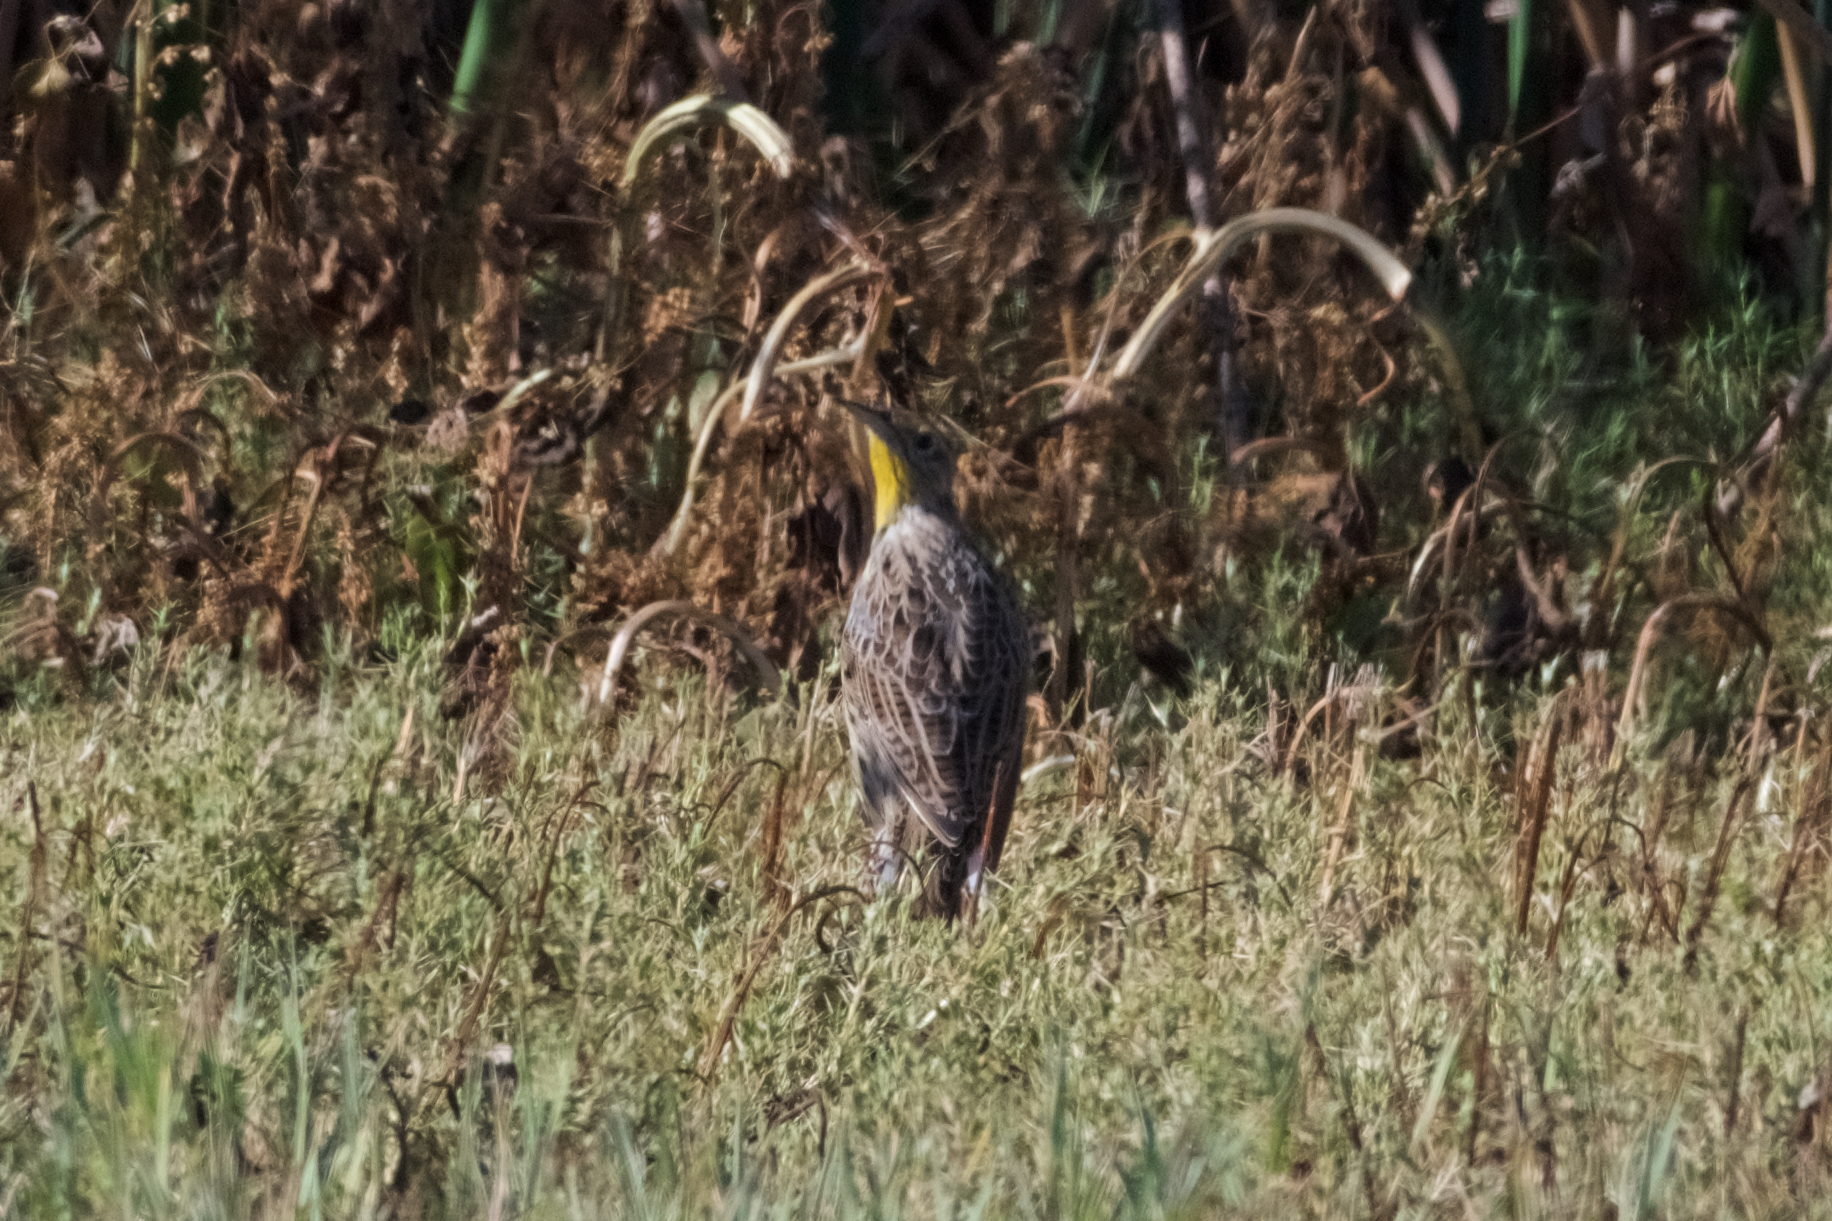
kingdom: Animalia
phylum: Chordata
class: Aves
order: Passeriformes
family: Icteridae
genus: Sturnella
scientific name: Sturnella neglecta
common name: Western meadowlark
